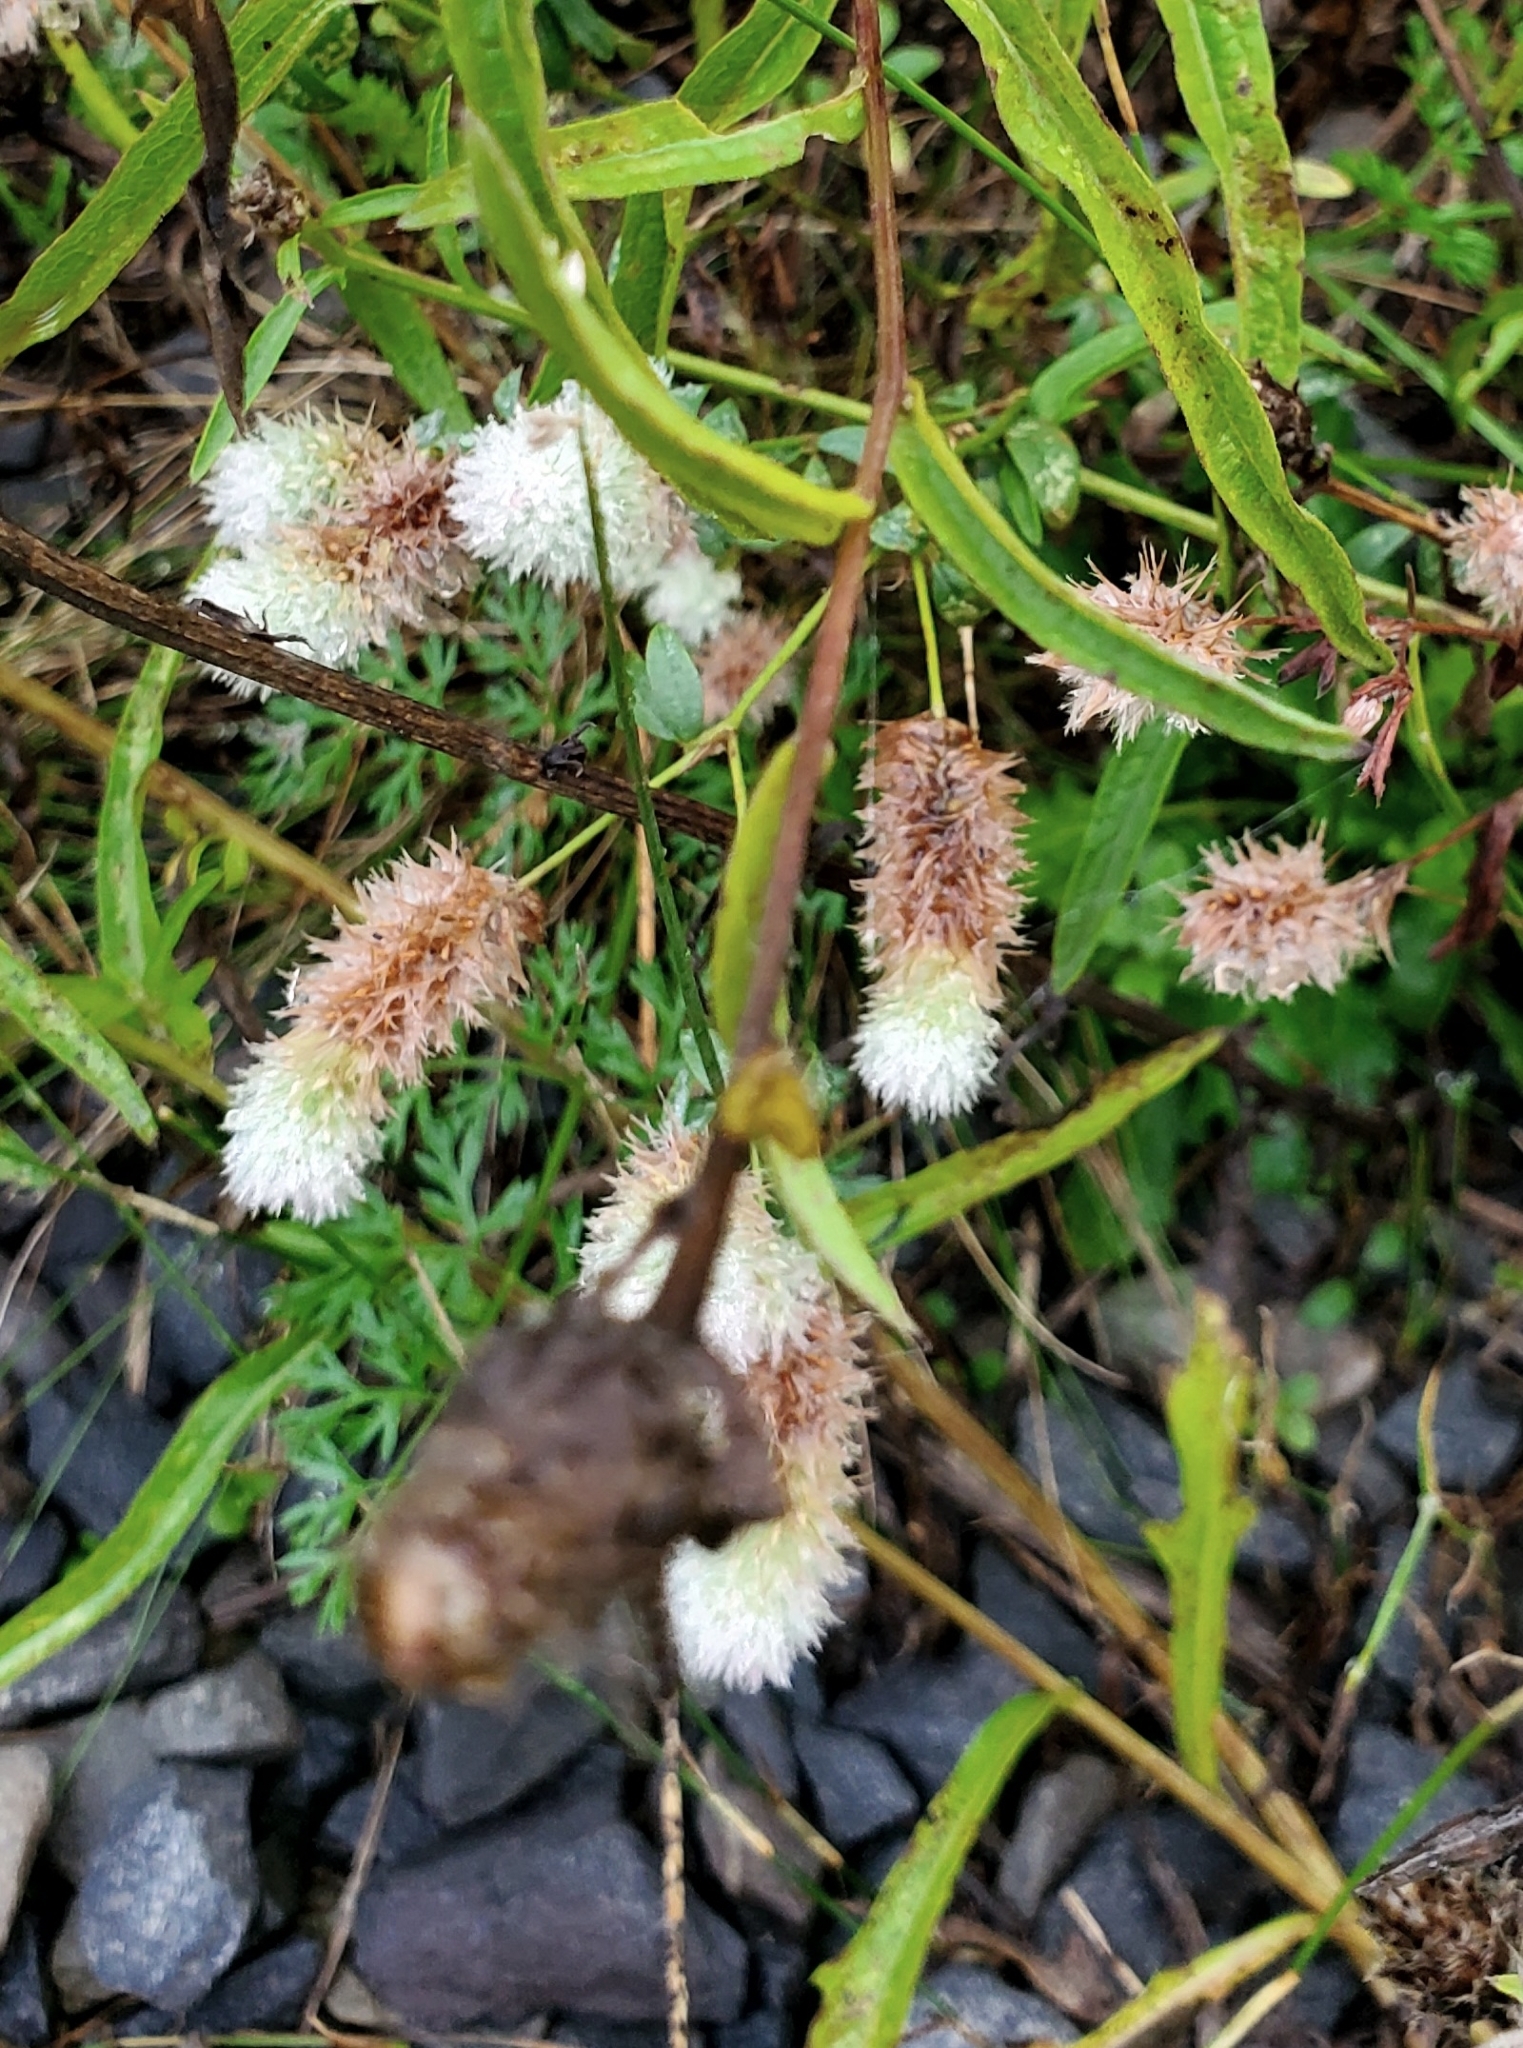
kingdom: Plantae
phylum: Tracheophyta
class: Magnoliopsida
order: Fabales
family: Fabaceae
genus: Trifolium
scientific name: Trifolium arvense
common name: Hare's-foot clover
